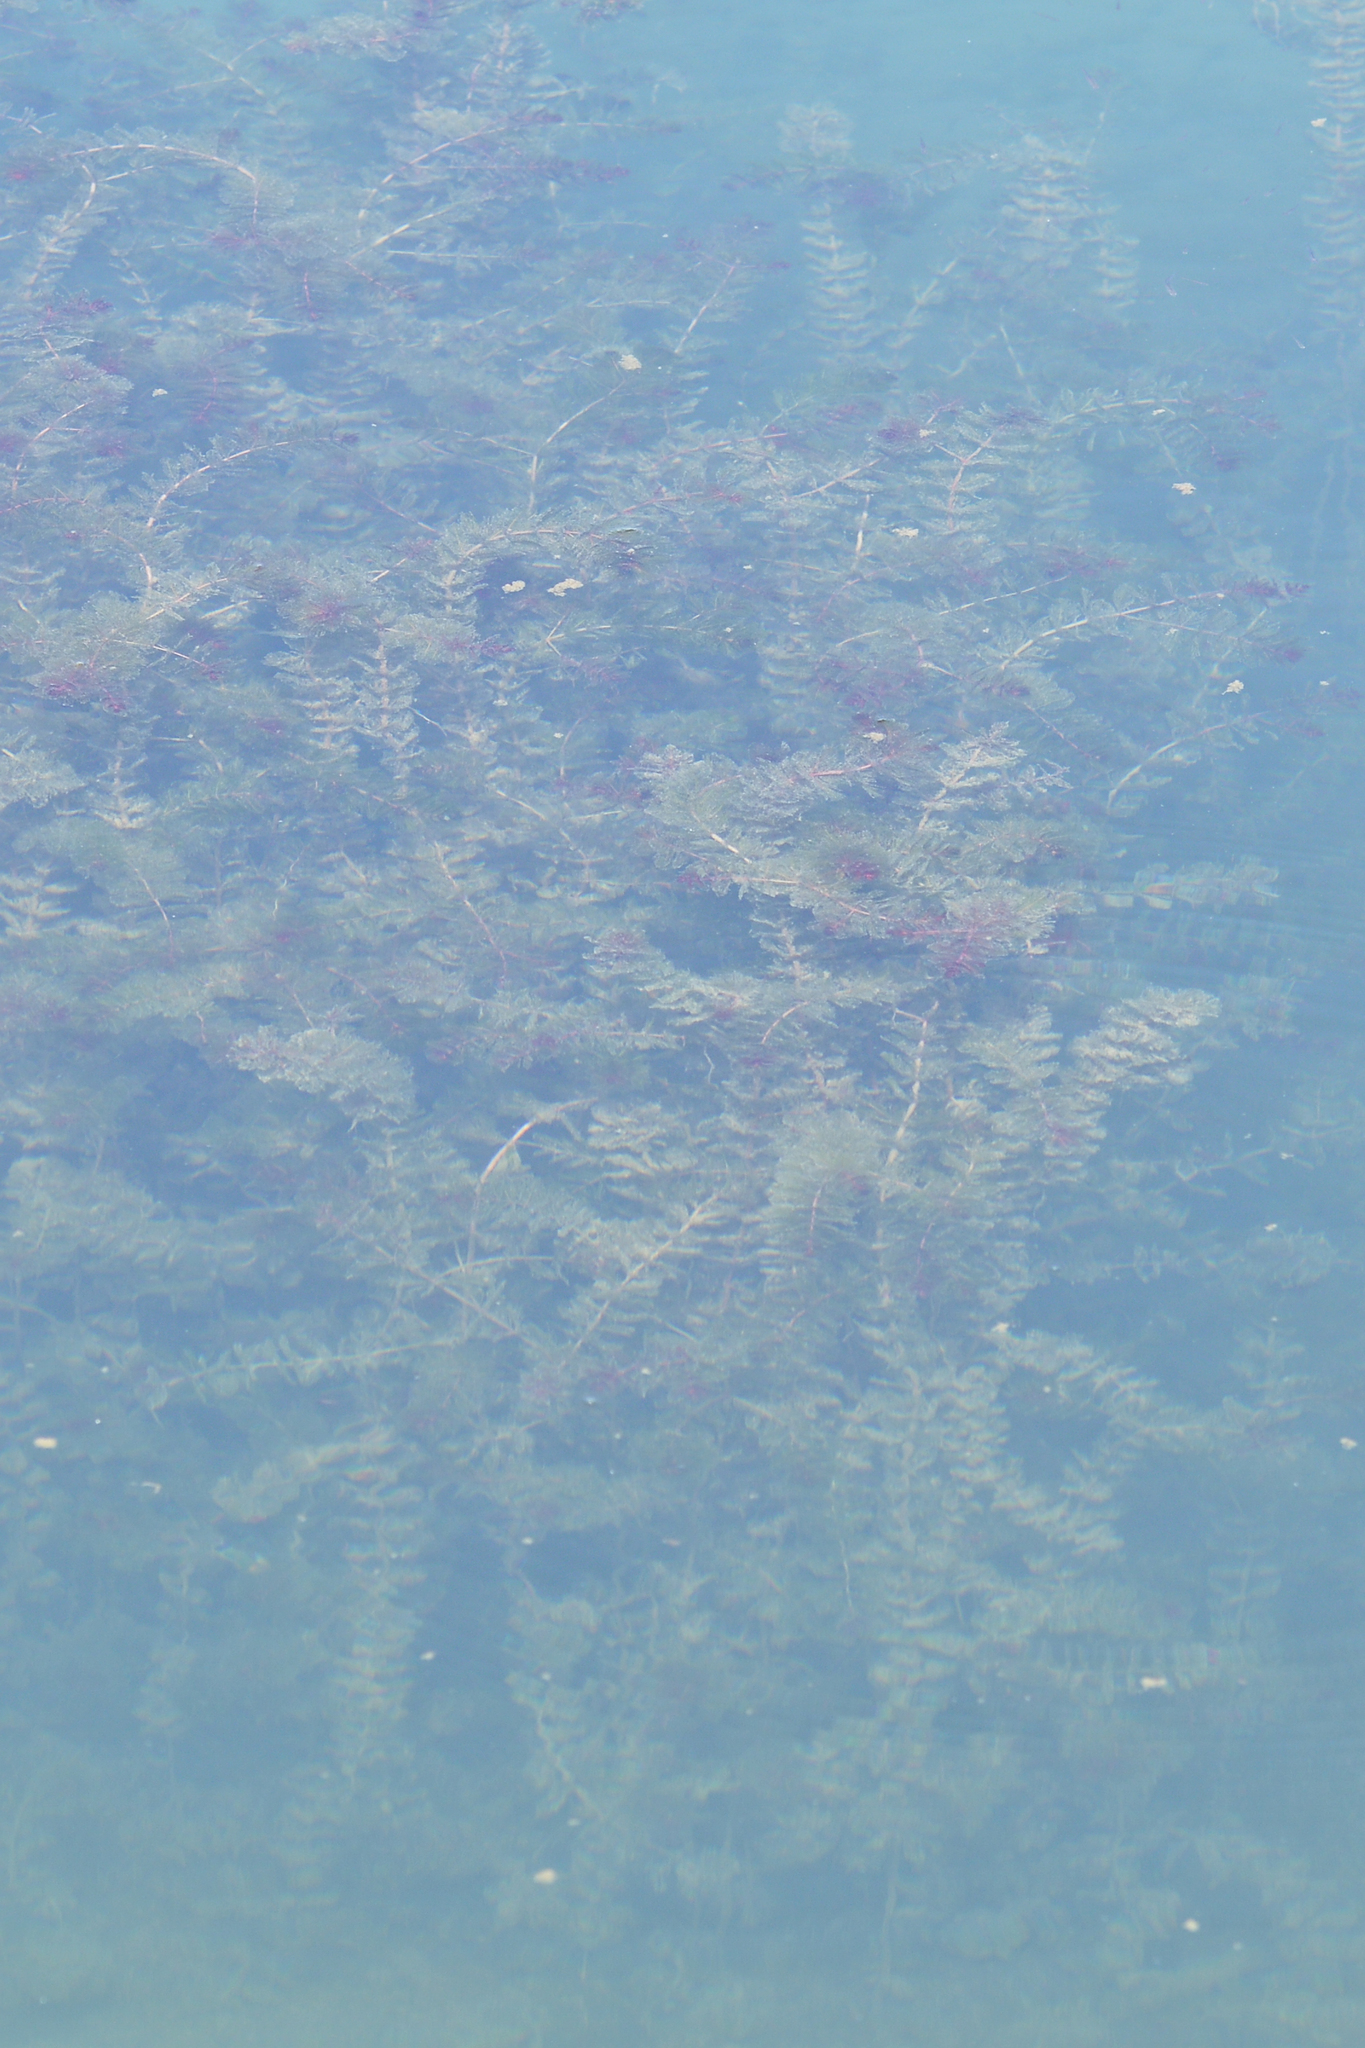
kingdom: Plantae
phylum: Tracheophyta
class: Magnoliopsida
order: Saxifragales
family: Haloragaceae
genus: Myriophyllum
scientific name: Myriophyllum spicatum
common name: Spiked water-milfoil
